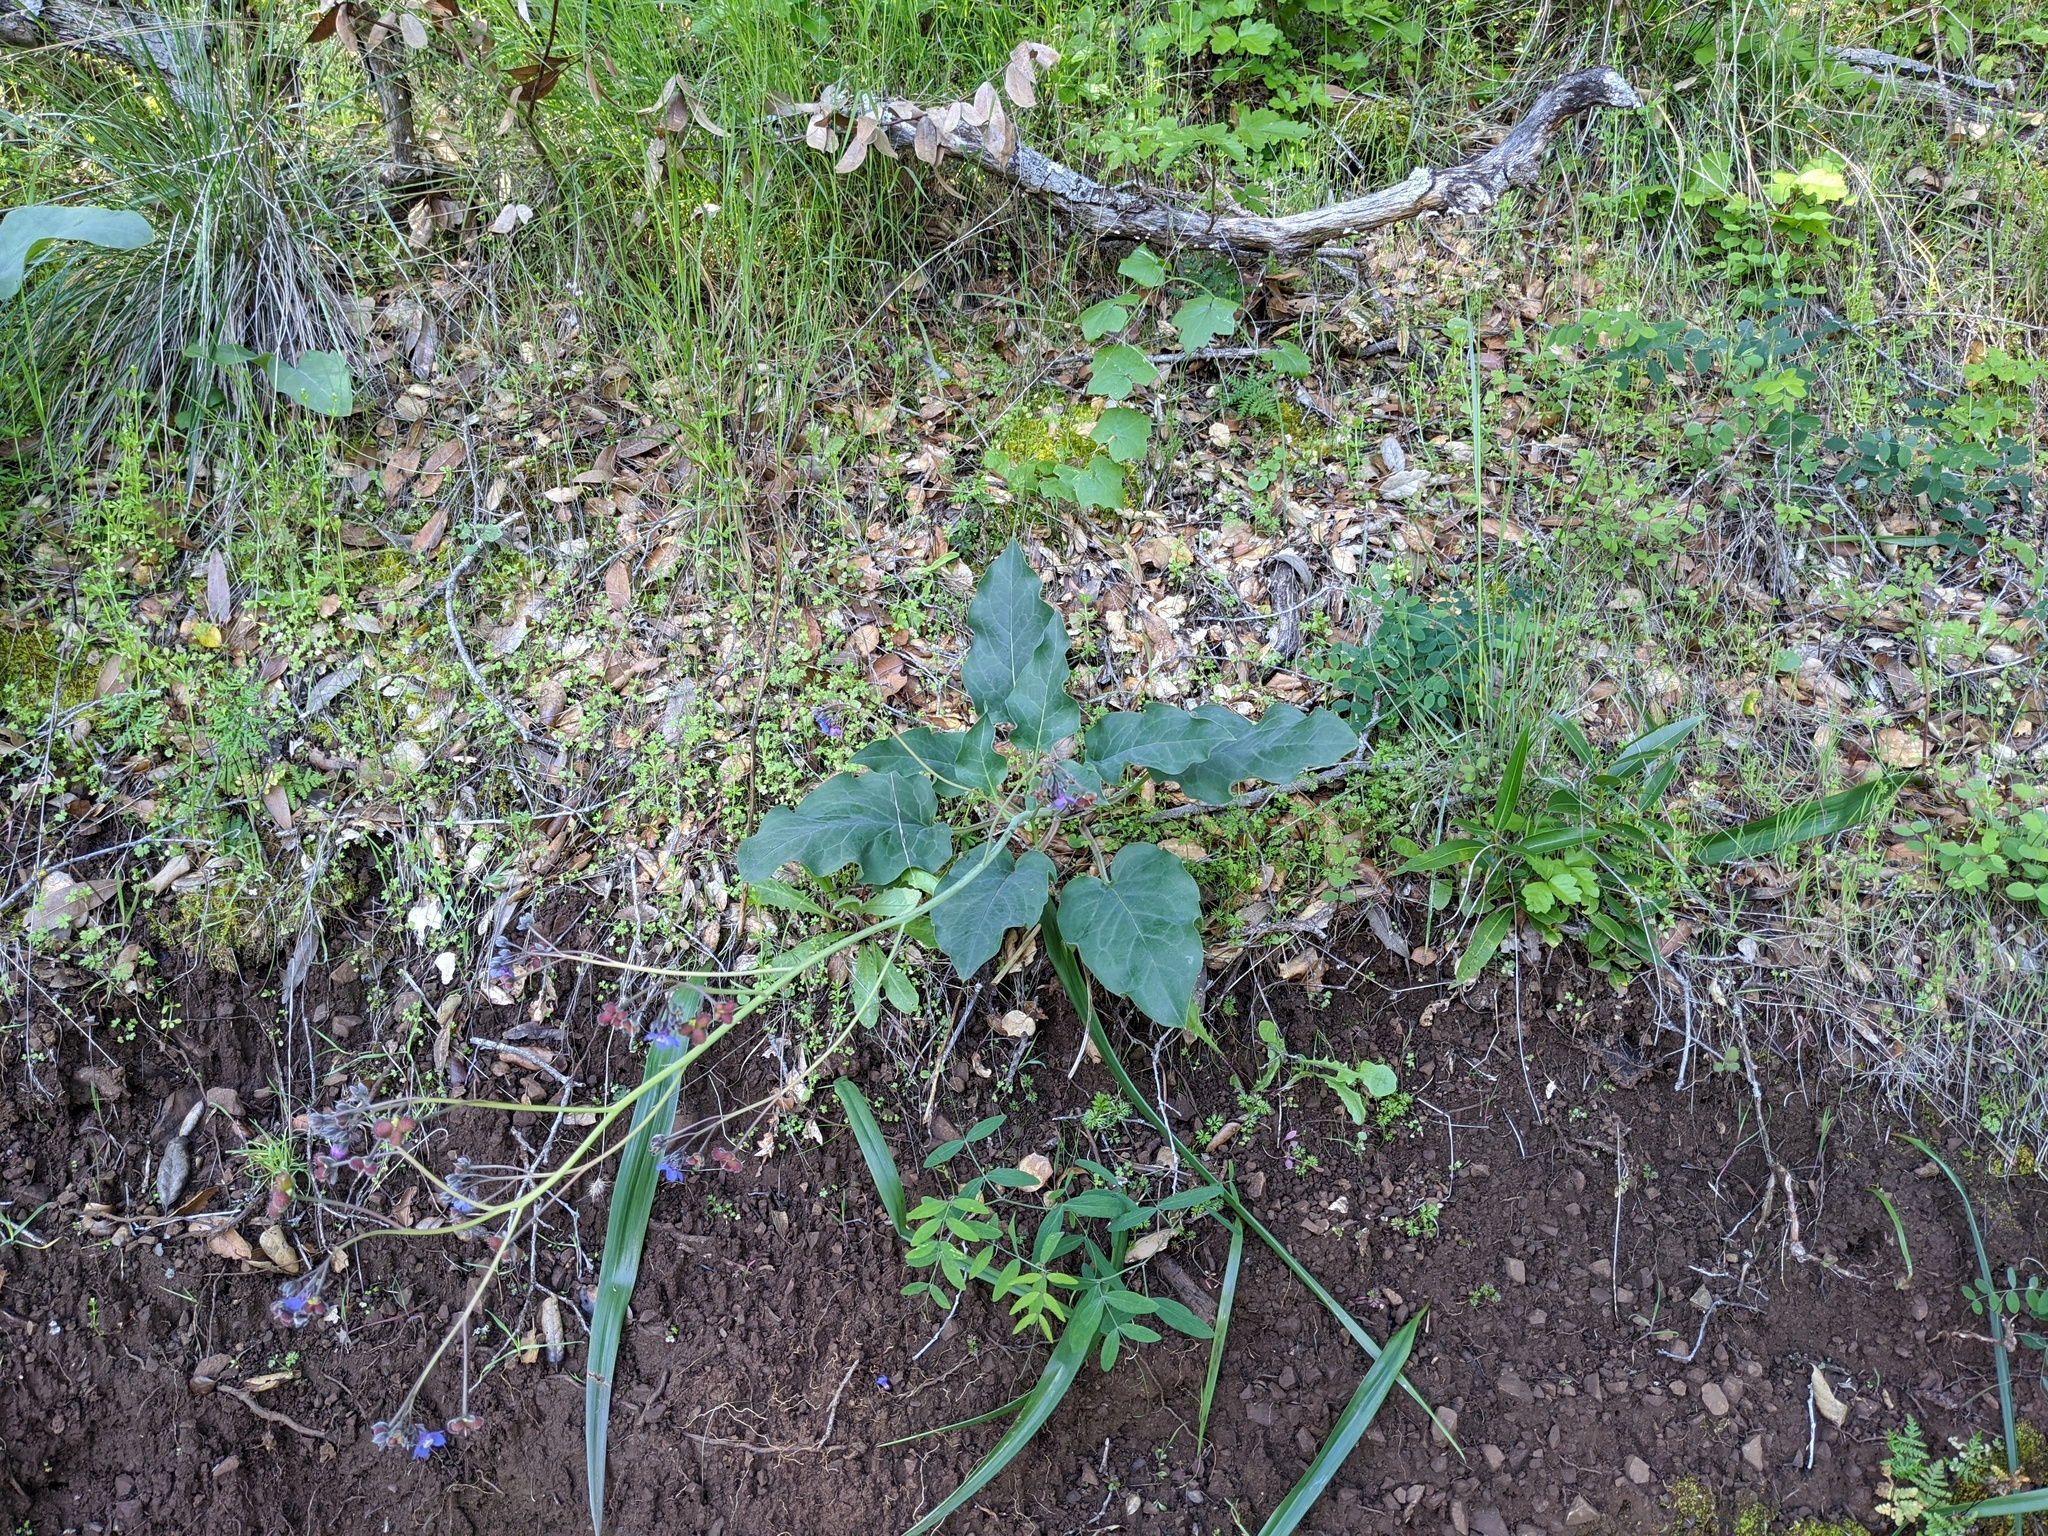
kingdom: Plantae
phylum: Tracheophyta
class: Magnoliopsida
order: Boraginales
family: Boraginaceae
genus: Adelinia
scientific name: Adelinia grande
